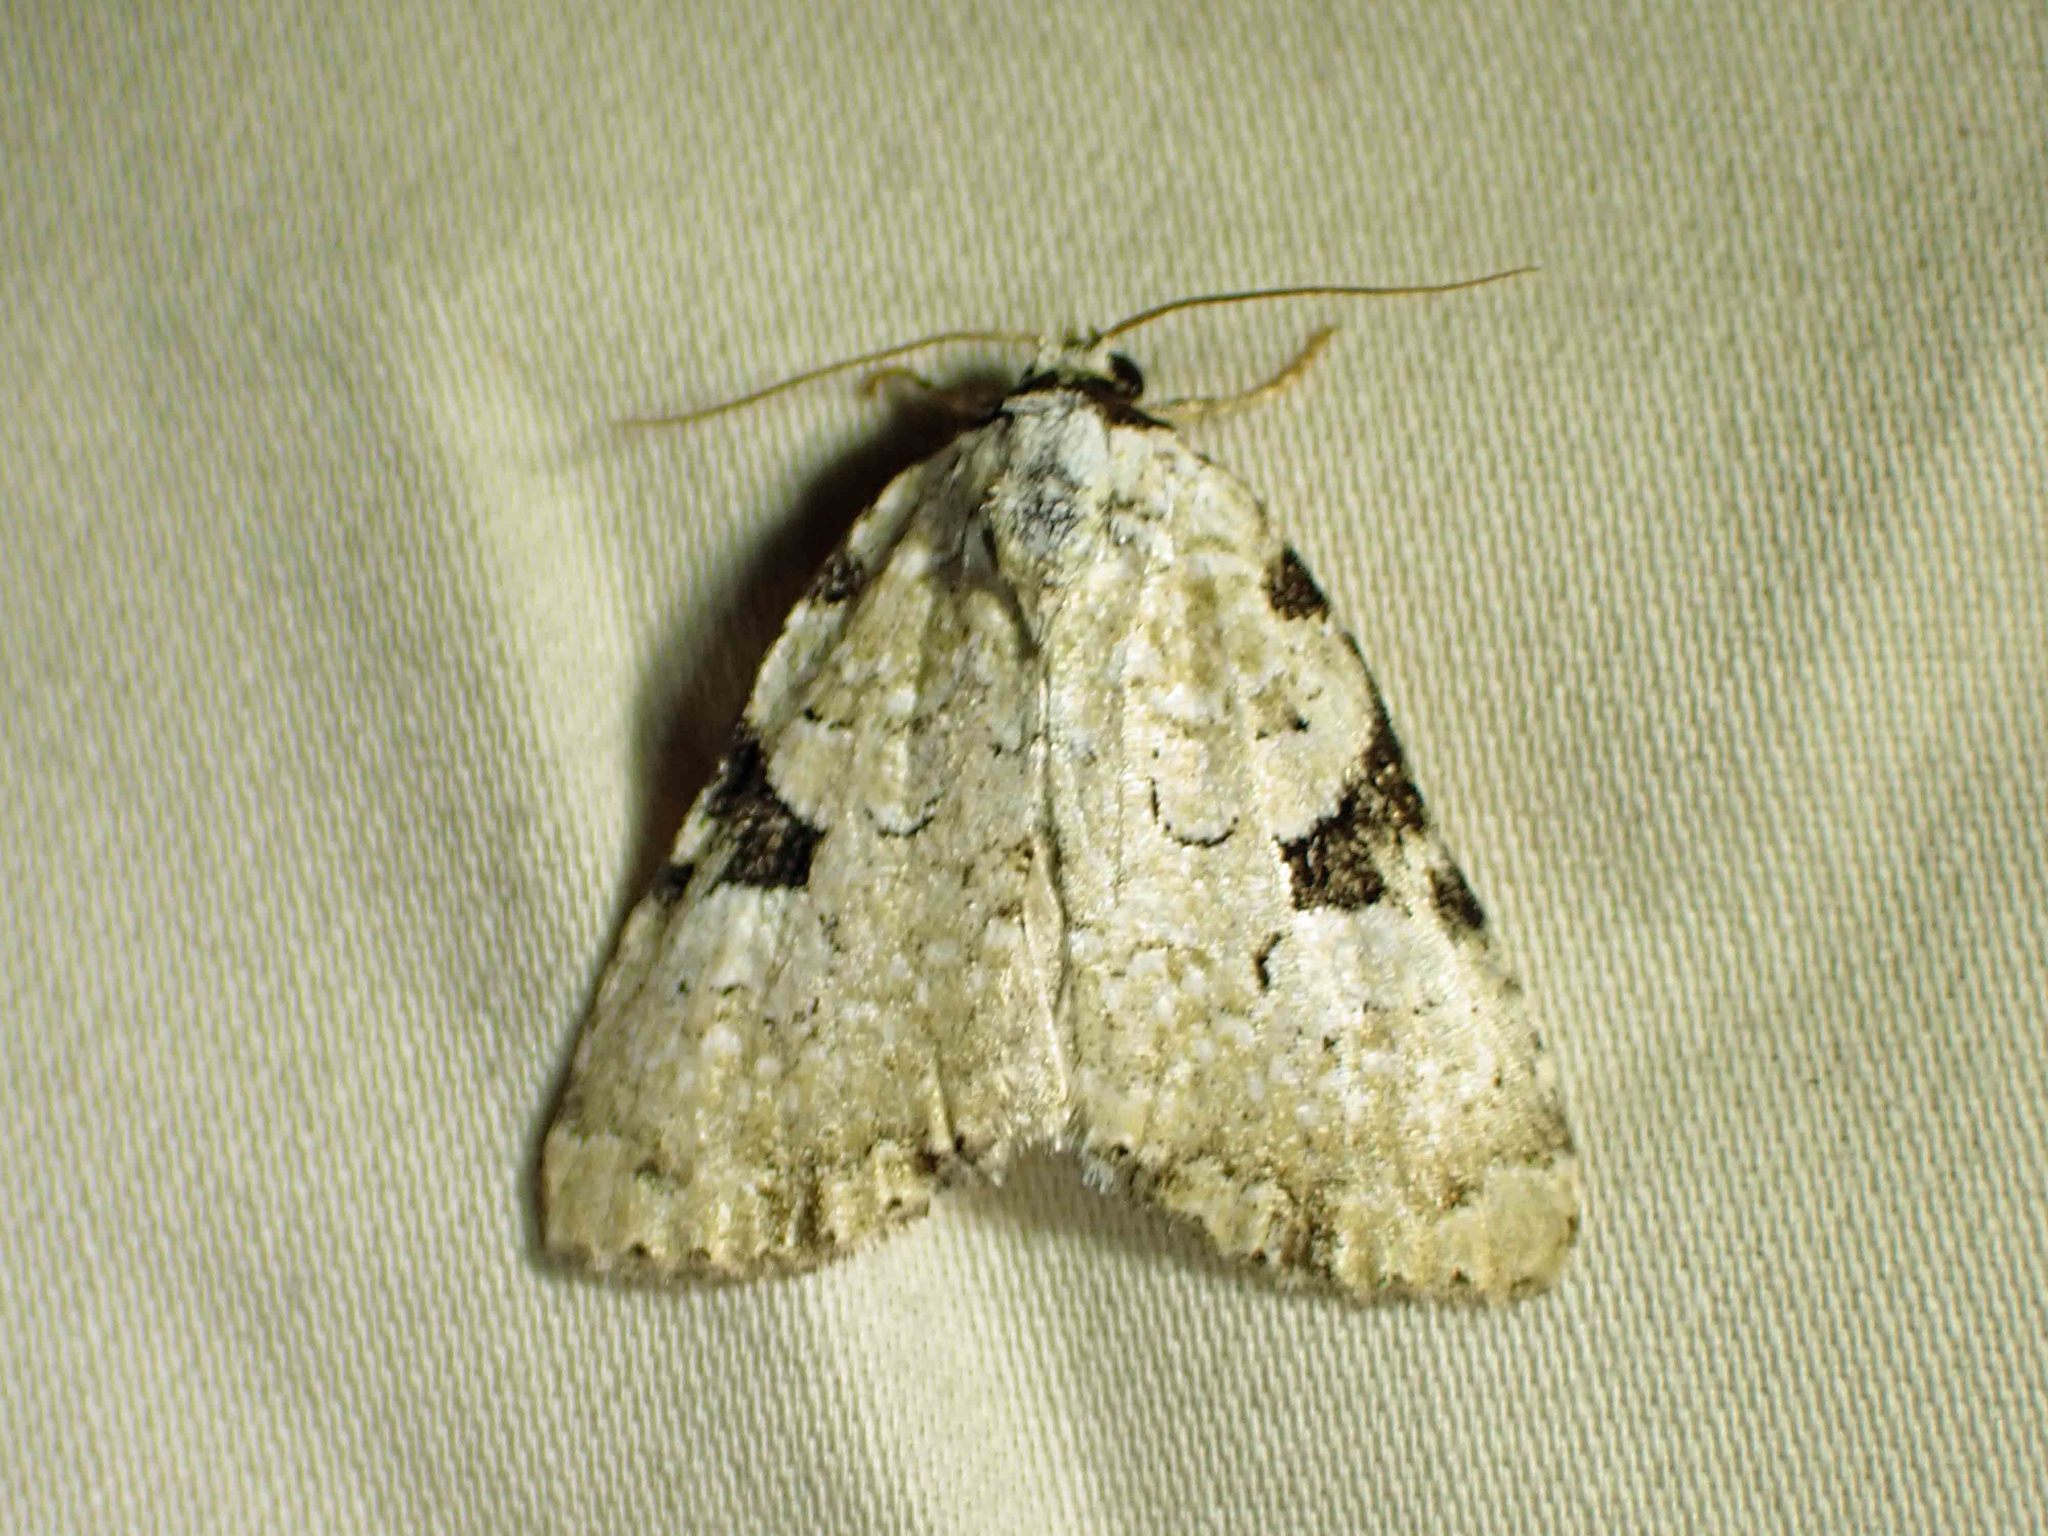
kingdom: Animalia
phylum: Arthropoda
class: Insecta
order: Lepidoptera
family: Noctuidae
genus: Leuconycta
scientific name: Leuconycta diphteroides
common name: Green leuconycta moth
